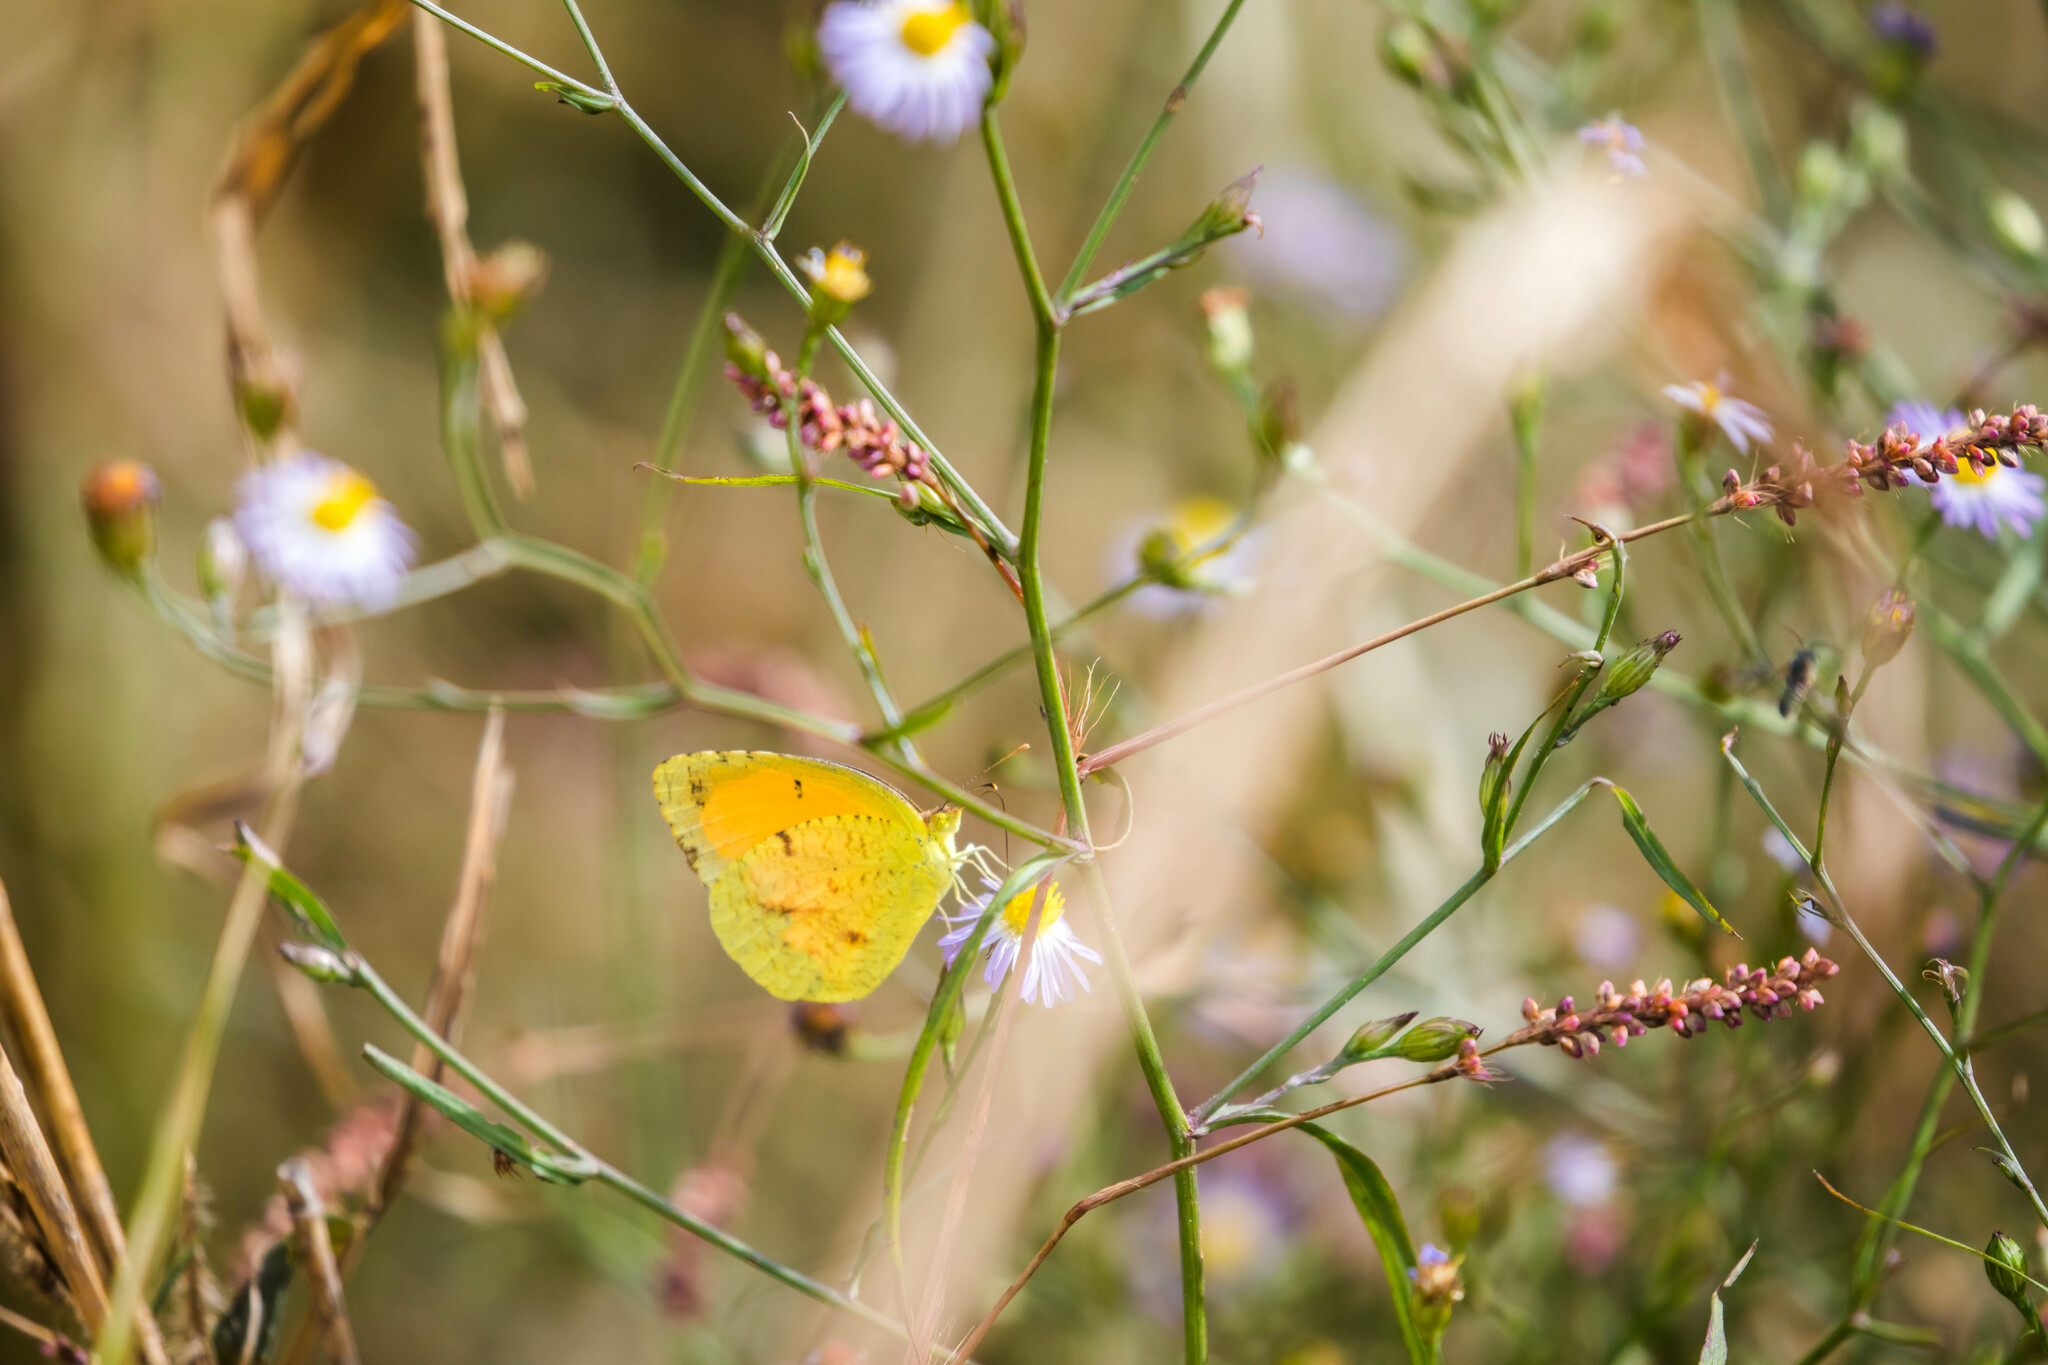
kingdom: Animalia
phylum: Arthropoda
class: Insecta
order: Lepidoptera
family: Pieridae
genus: Abaeis
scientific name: Abaeis nicippe
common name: Sleepy orange
